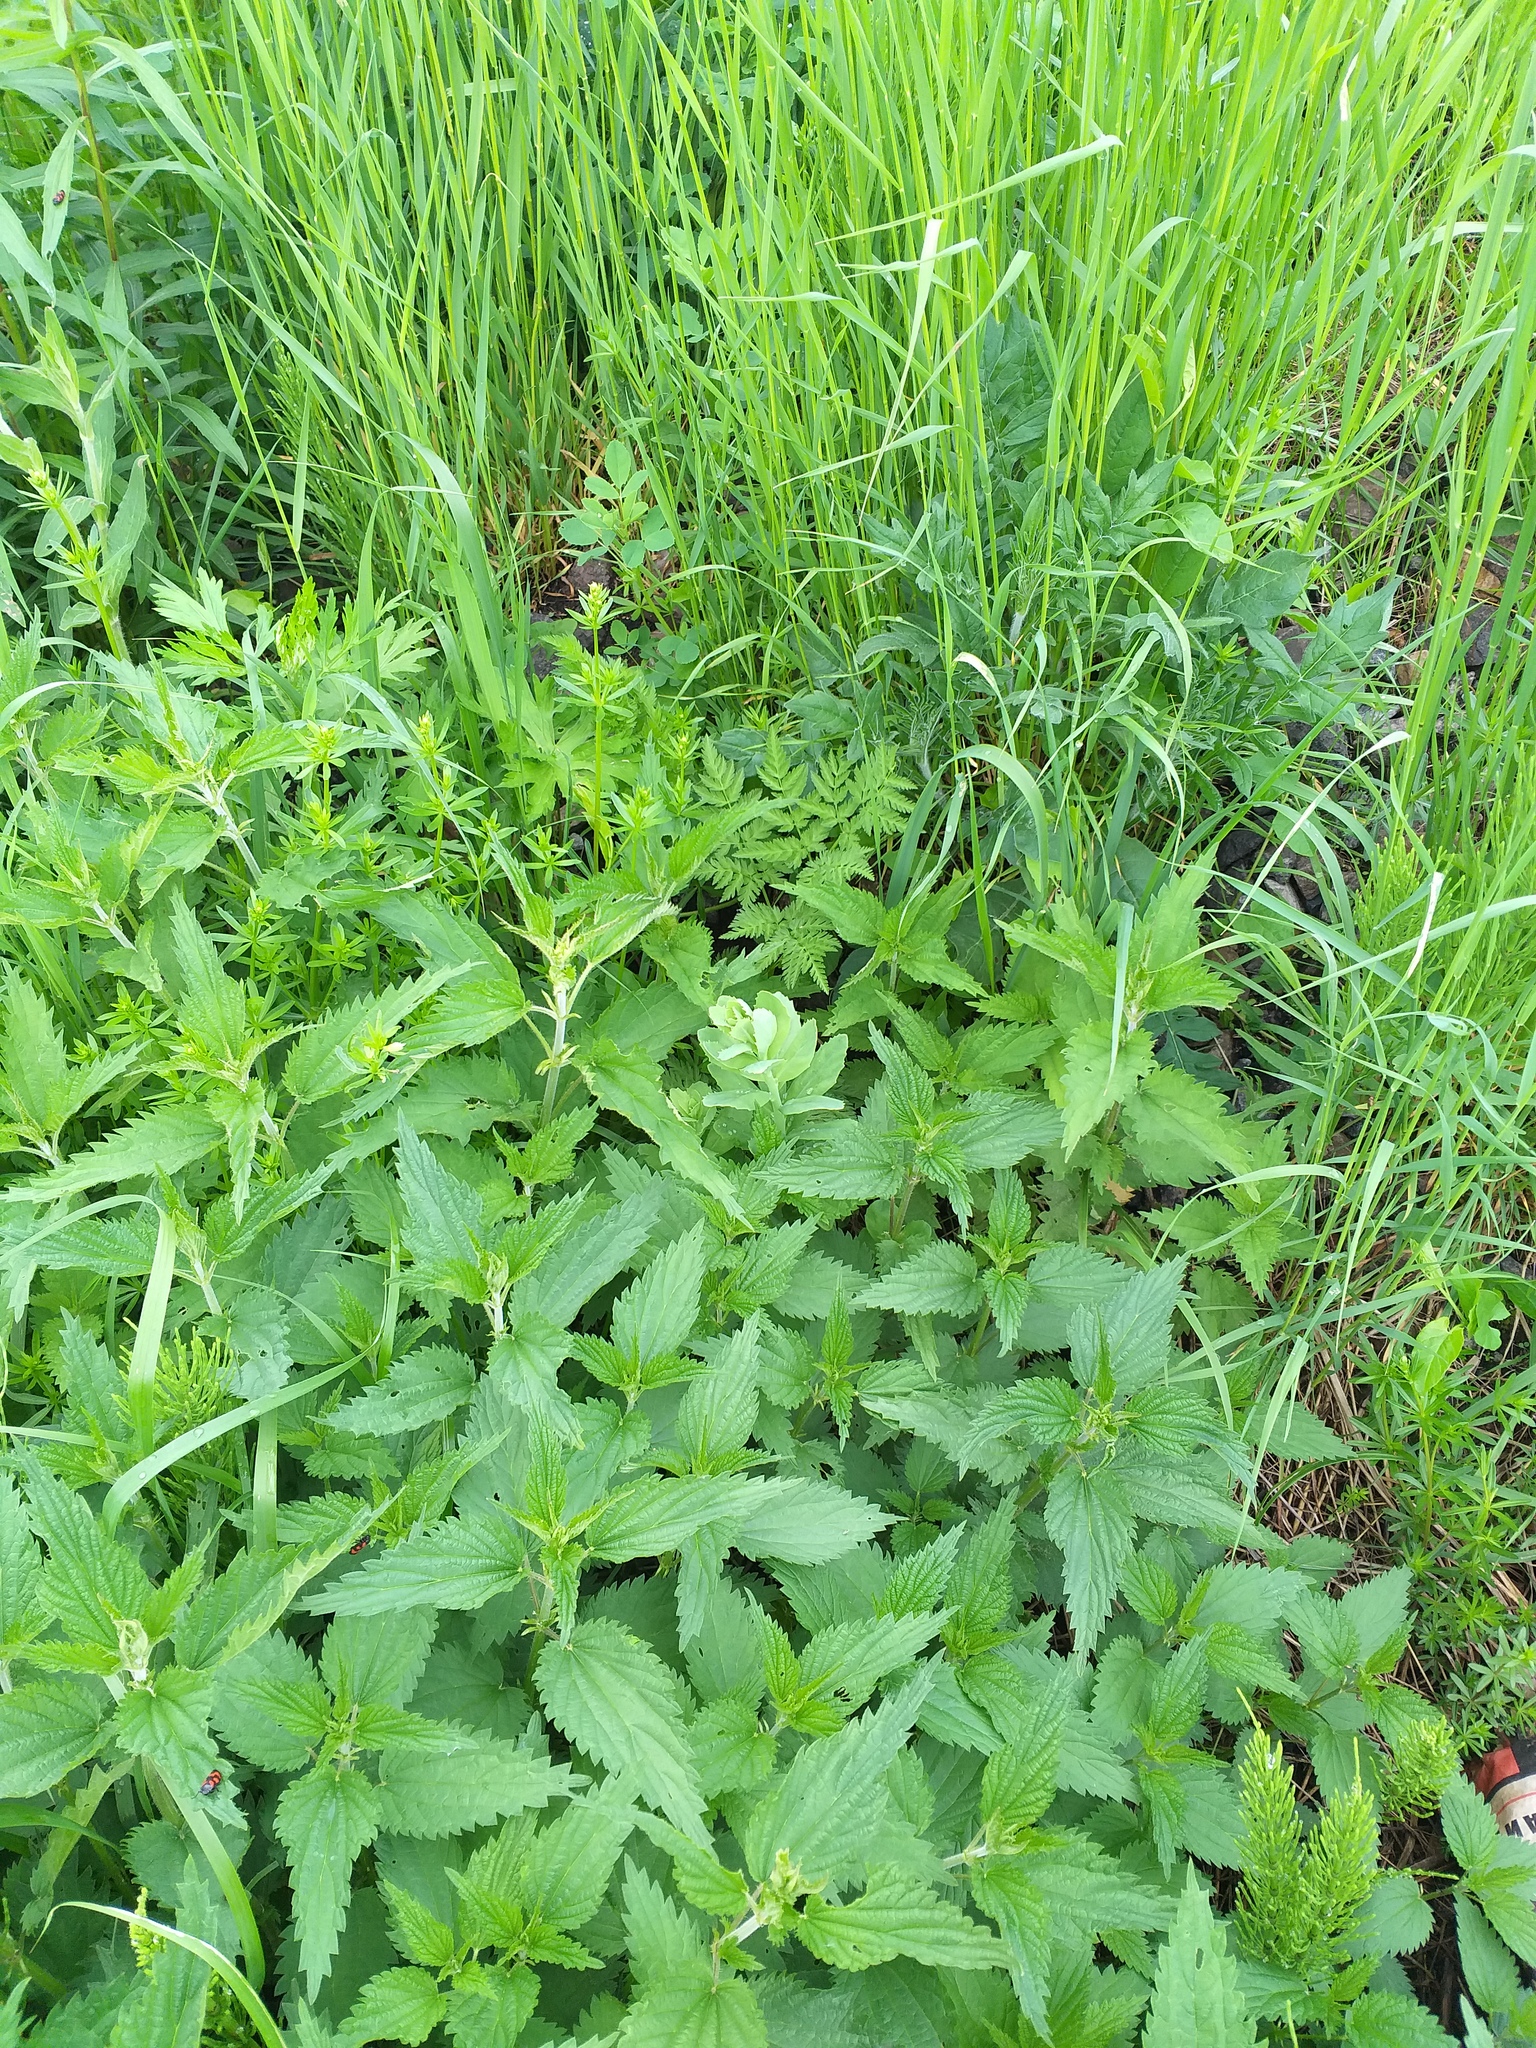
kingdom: Plantae
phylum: Tracheophyta
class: Magnoliopsida
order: Saxifragales
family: Crassulaceae
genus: Hylotelephium
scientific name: Hylotelephium telephium
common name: Live-forever
